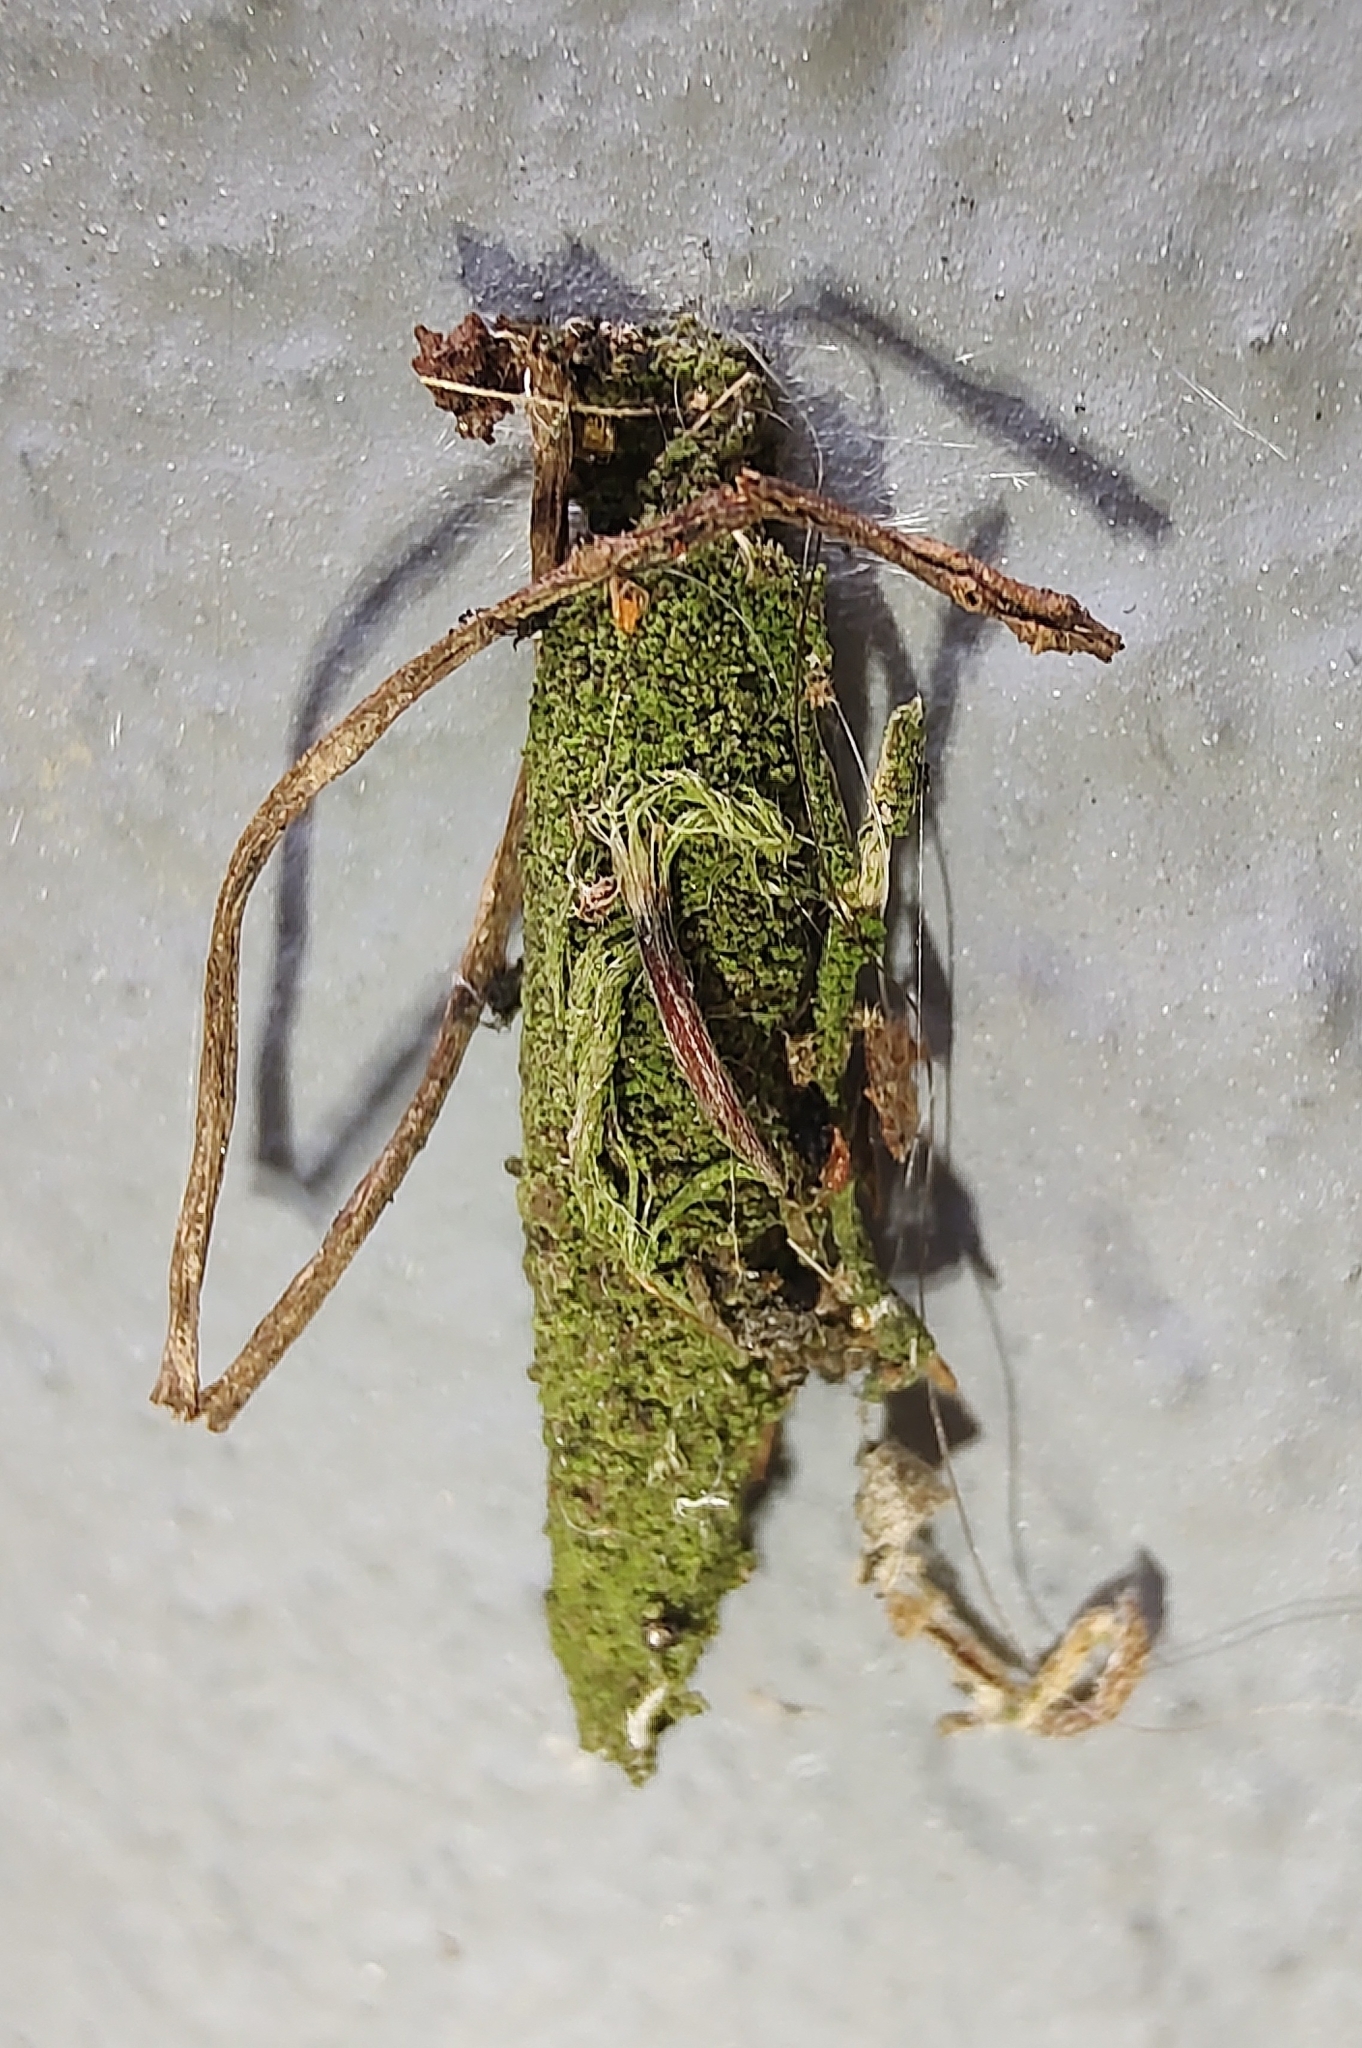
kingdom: Animalia
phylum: Arthropoda
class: Insecta
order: Lepidoptera
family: Psychidae
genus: Oiketicus
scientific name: Oiketicus kirbyi
